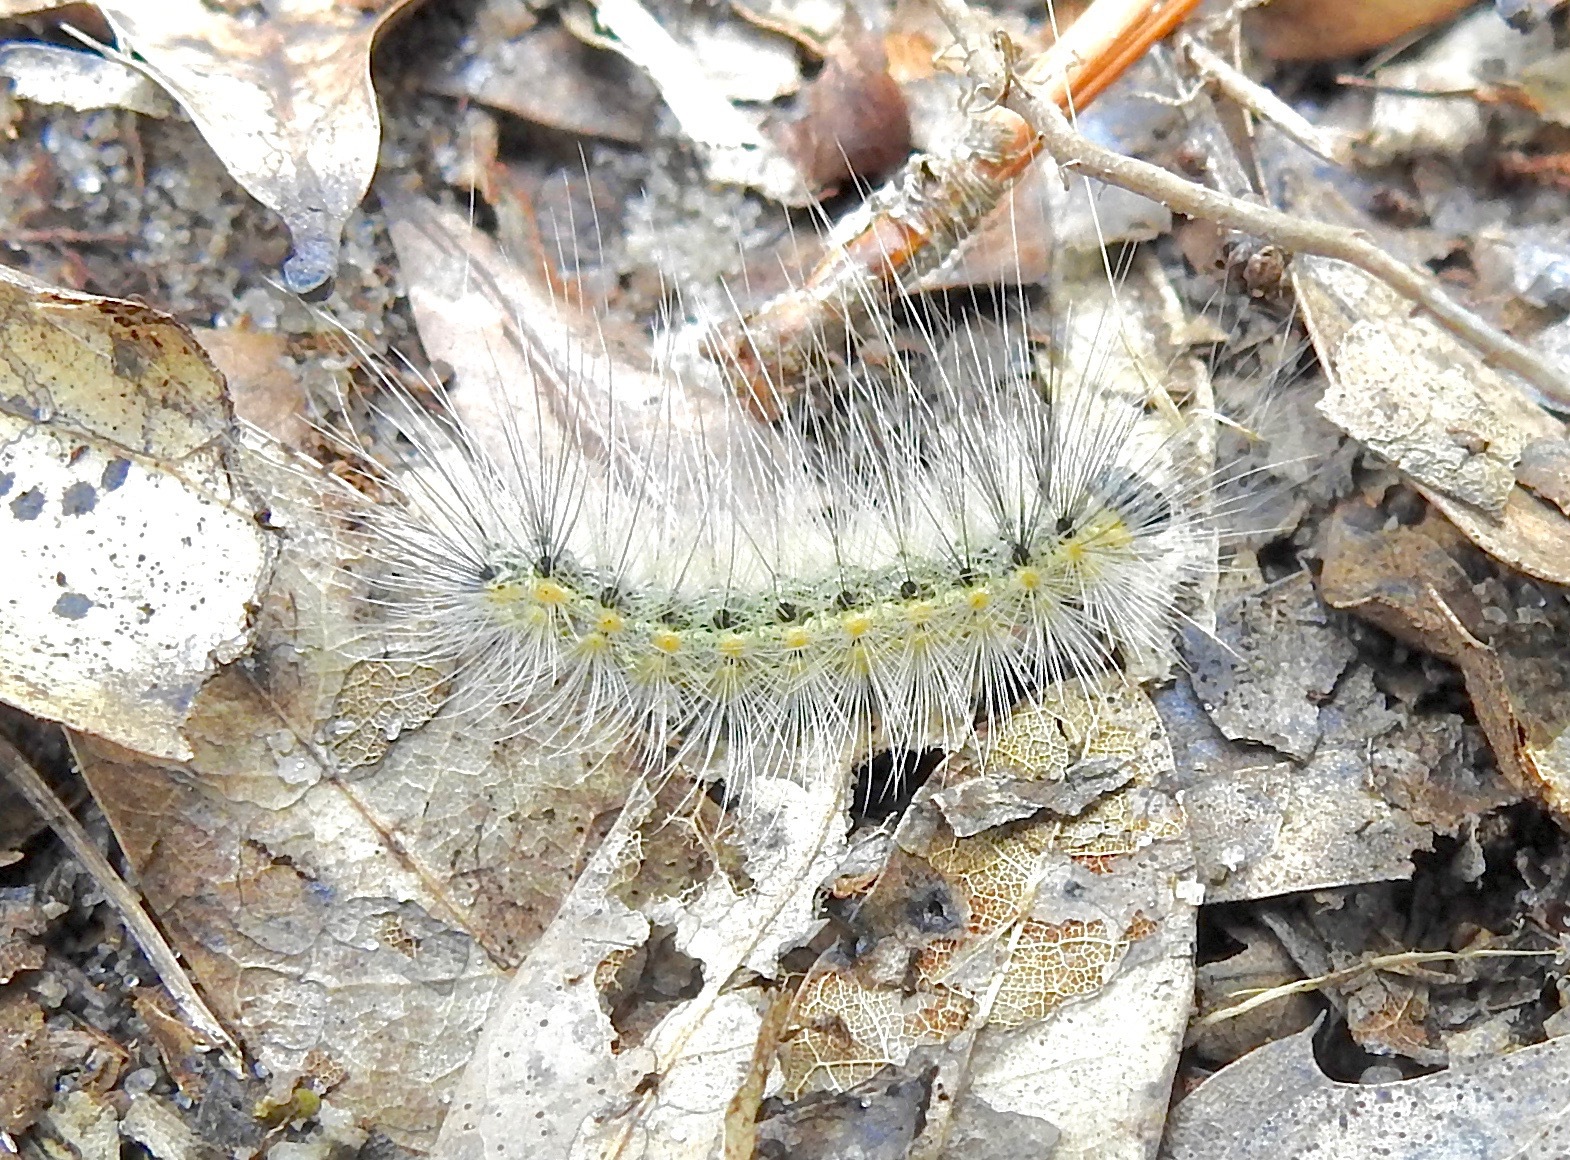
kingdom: Animalia
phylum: Arthropoda
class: Insecta
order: Lepidoptera
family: Erebidae
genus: Hyphantria
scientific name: Hyphantria cunea
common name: American white moth
